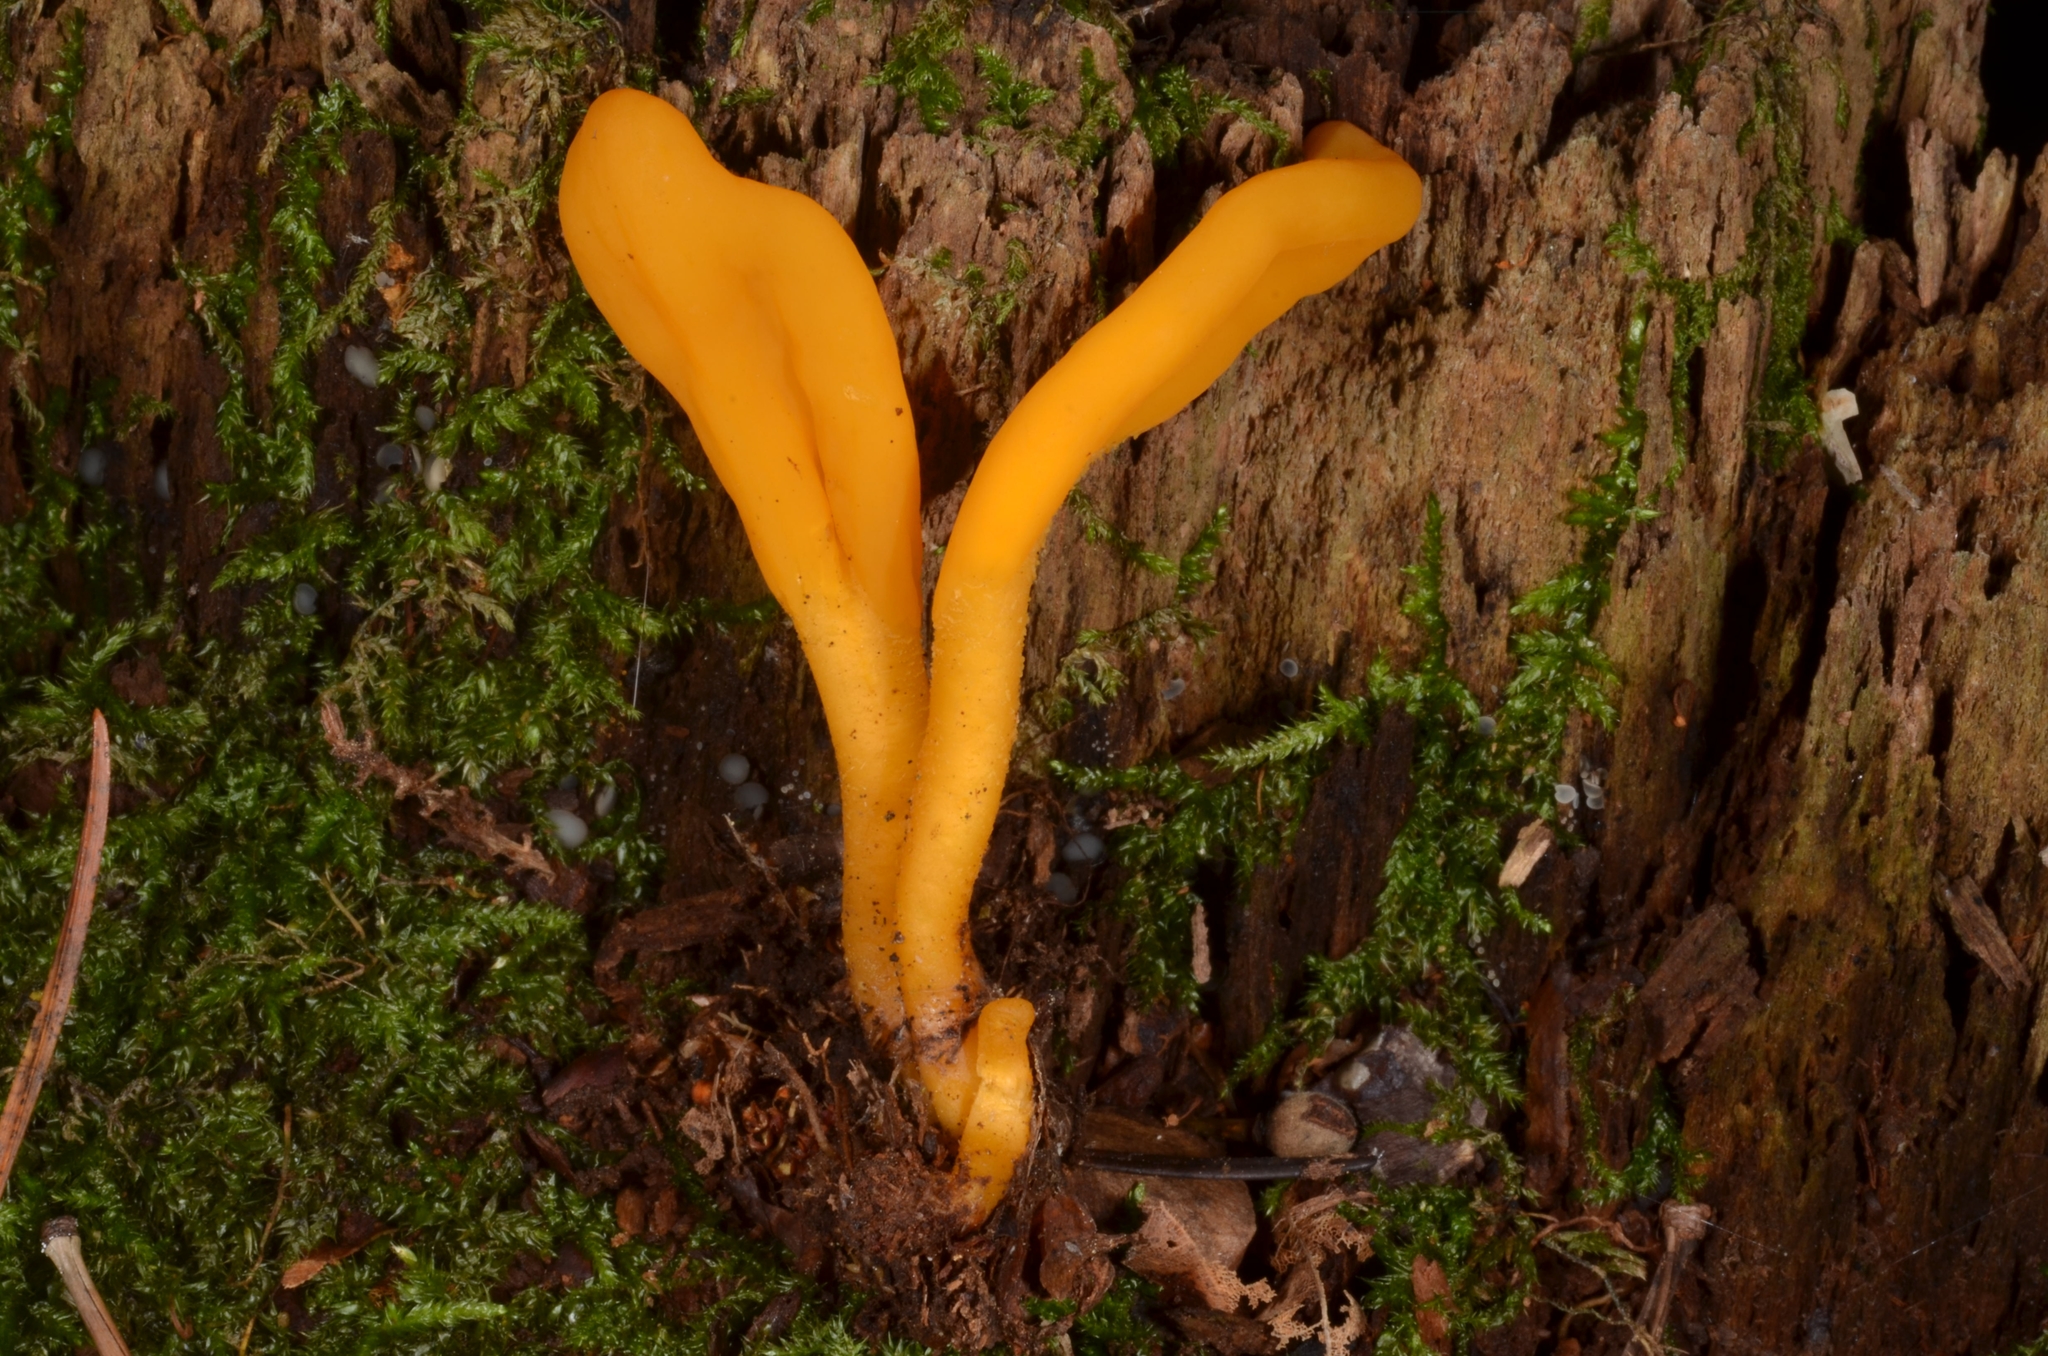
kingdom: Fungi
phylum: Ascomycota
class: Leotiomycetes
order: Leotiales
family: Leotiaceae
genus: Microglossum
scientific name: Microglossum rufum
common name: Orange earthtongue
